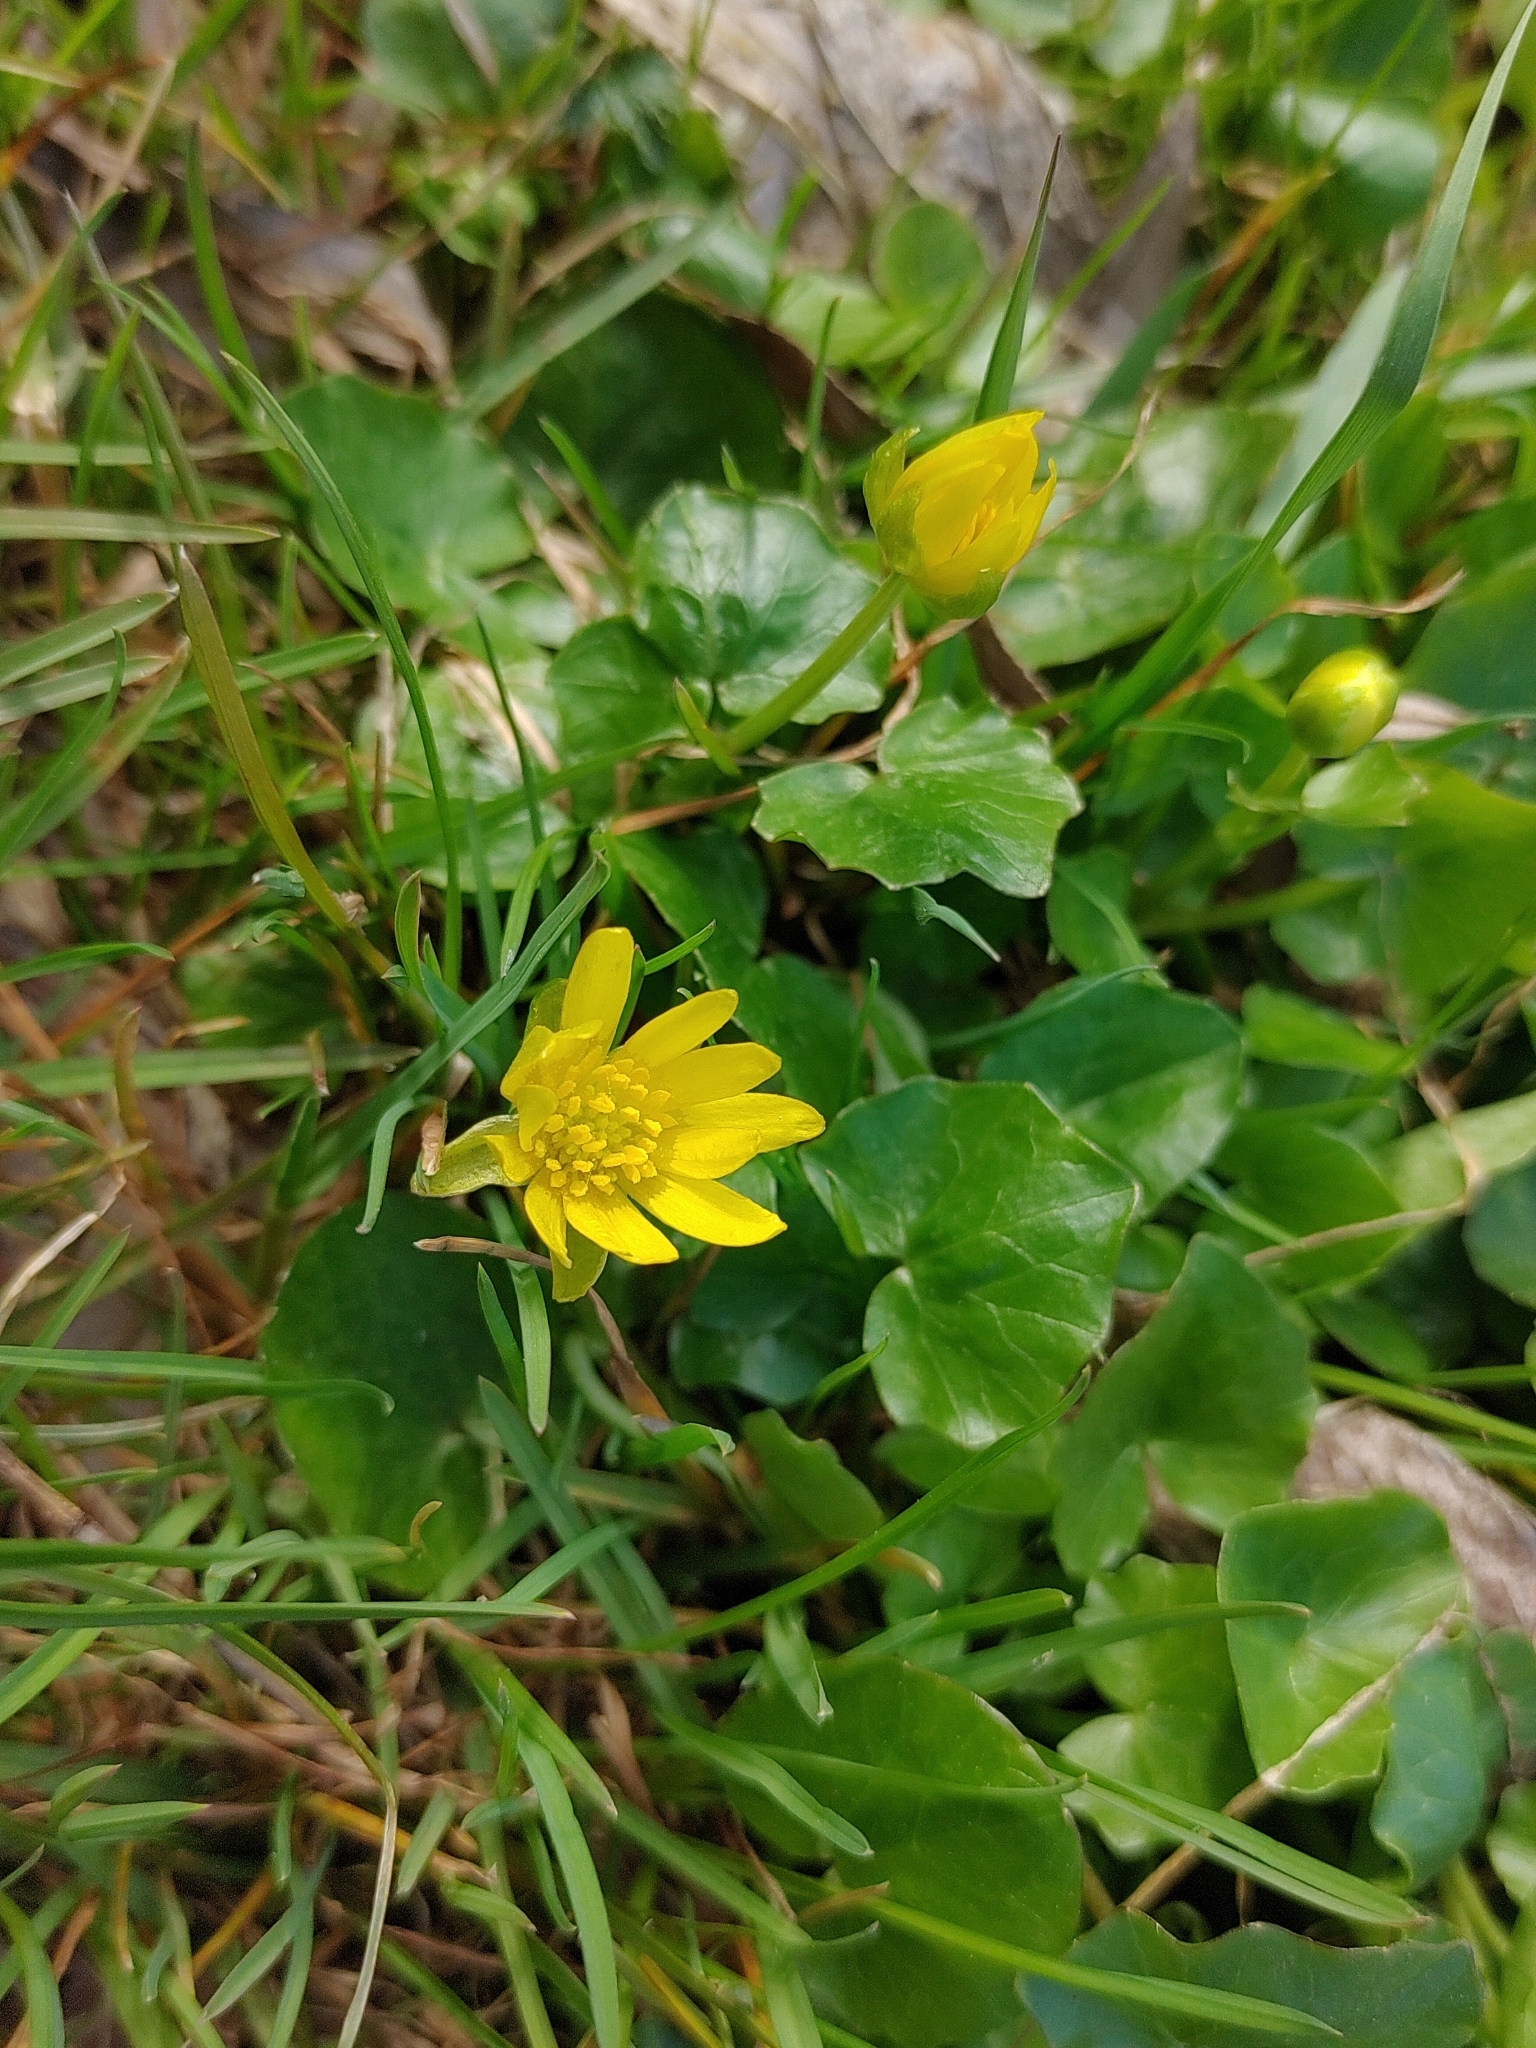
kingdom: Plantae
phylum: Tracheophyta
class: Magnoliopsida
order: Ranunculales
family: Ranunculaceae
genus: Ficaria
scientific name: Ficaria verna
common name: Lesser celandine
